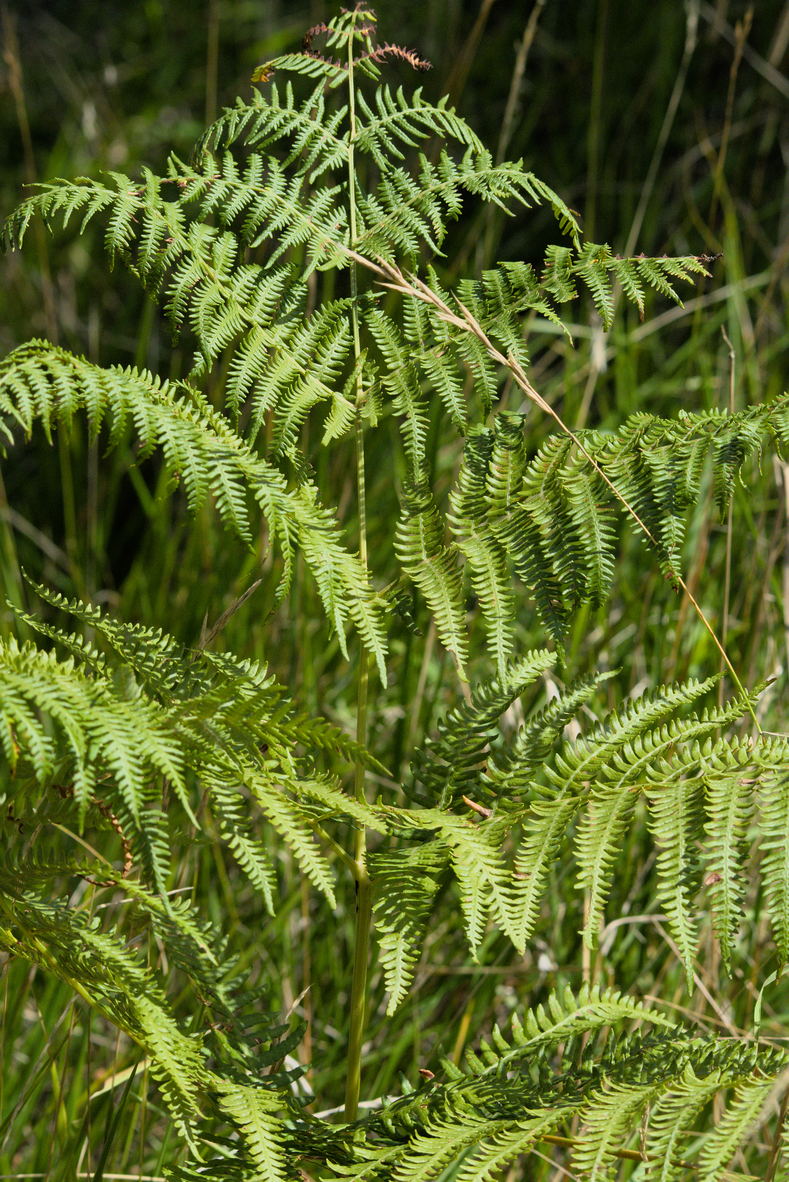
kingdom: Plantae
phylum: Tracheophyta
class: Polypodiopsida
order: Polypodiales
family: Dennstaedtiaceae
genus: Pteridium
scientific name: Pteridium aquilinum
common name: Bracken
